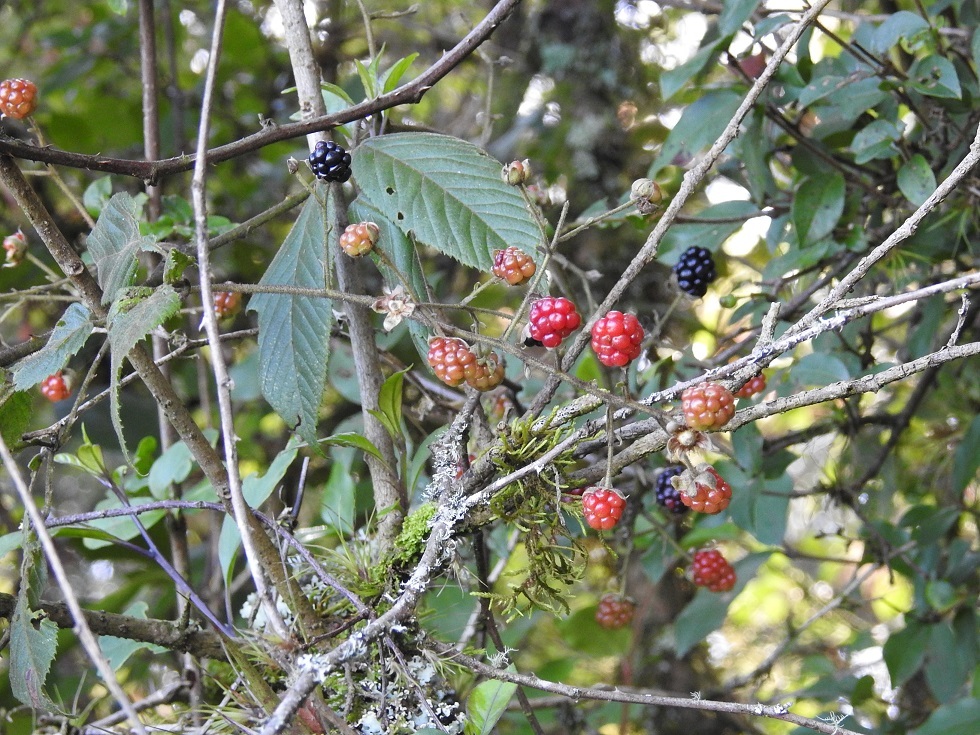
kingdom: Plantae
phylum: Tracheophyta
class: Magnoliopsida
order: Rosales
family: Rosaceae
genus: Rubus
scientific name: Rubus sapidus
